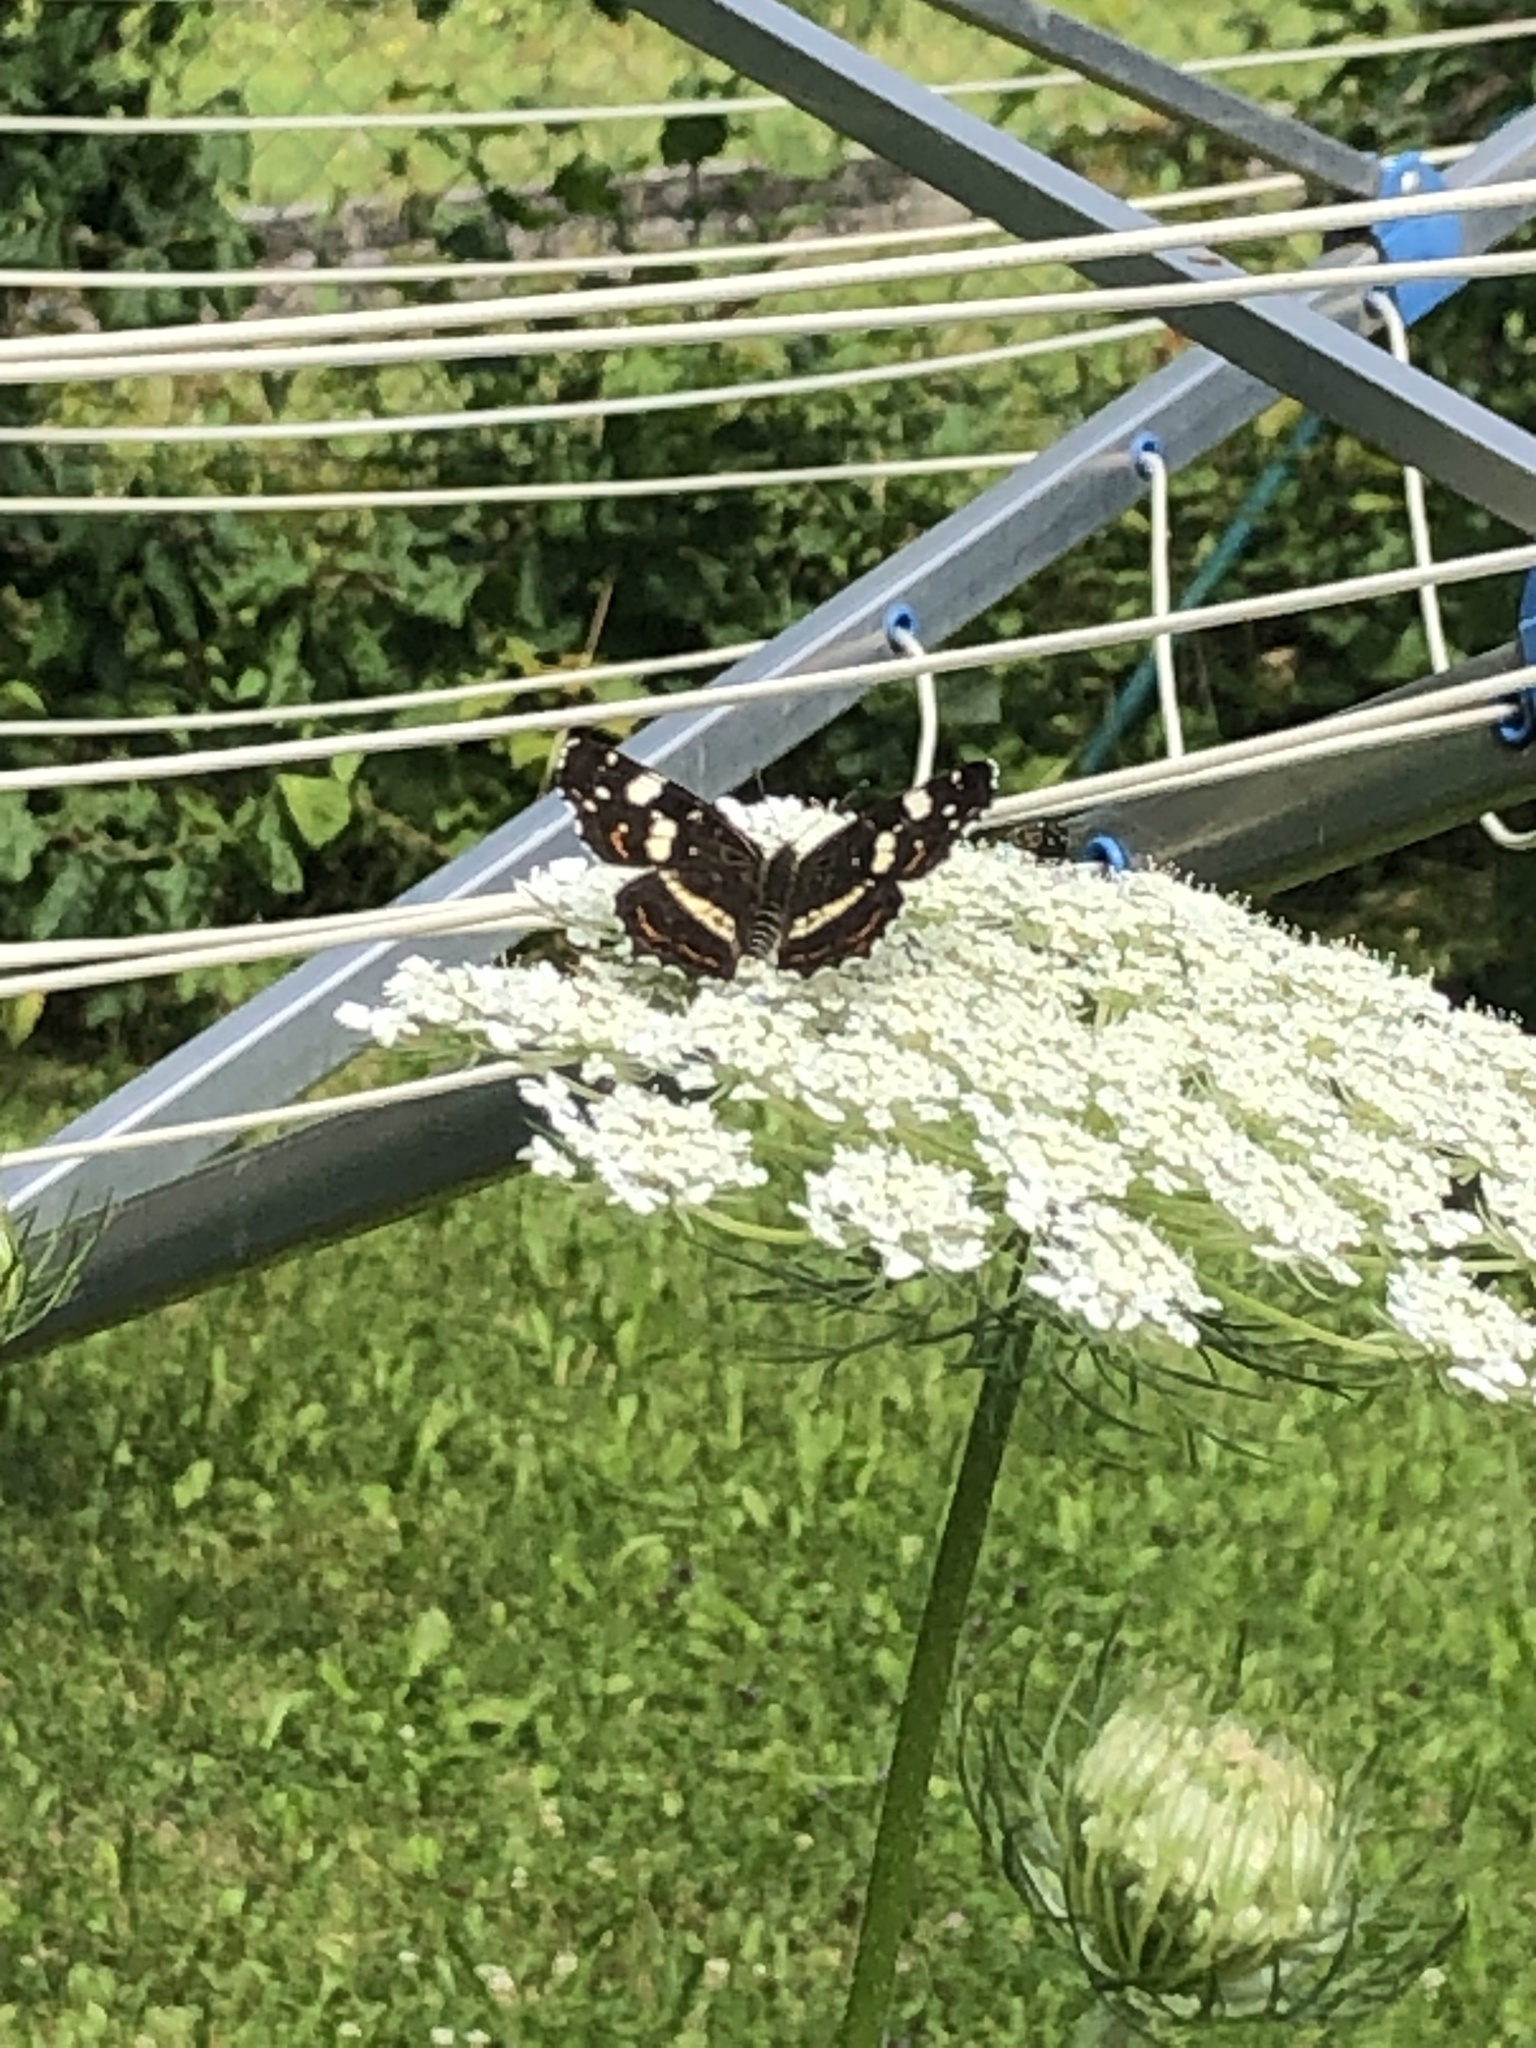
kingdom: Animalia
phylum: Arthropoda
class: Insecta
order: Lepidoptera
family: Nymphalidae
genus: Araschnia
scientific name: Araschnia levana
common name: Map butterfly
